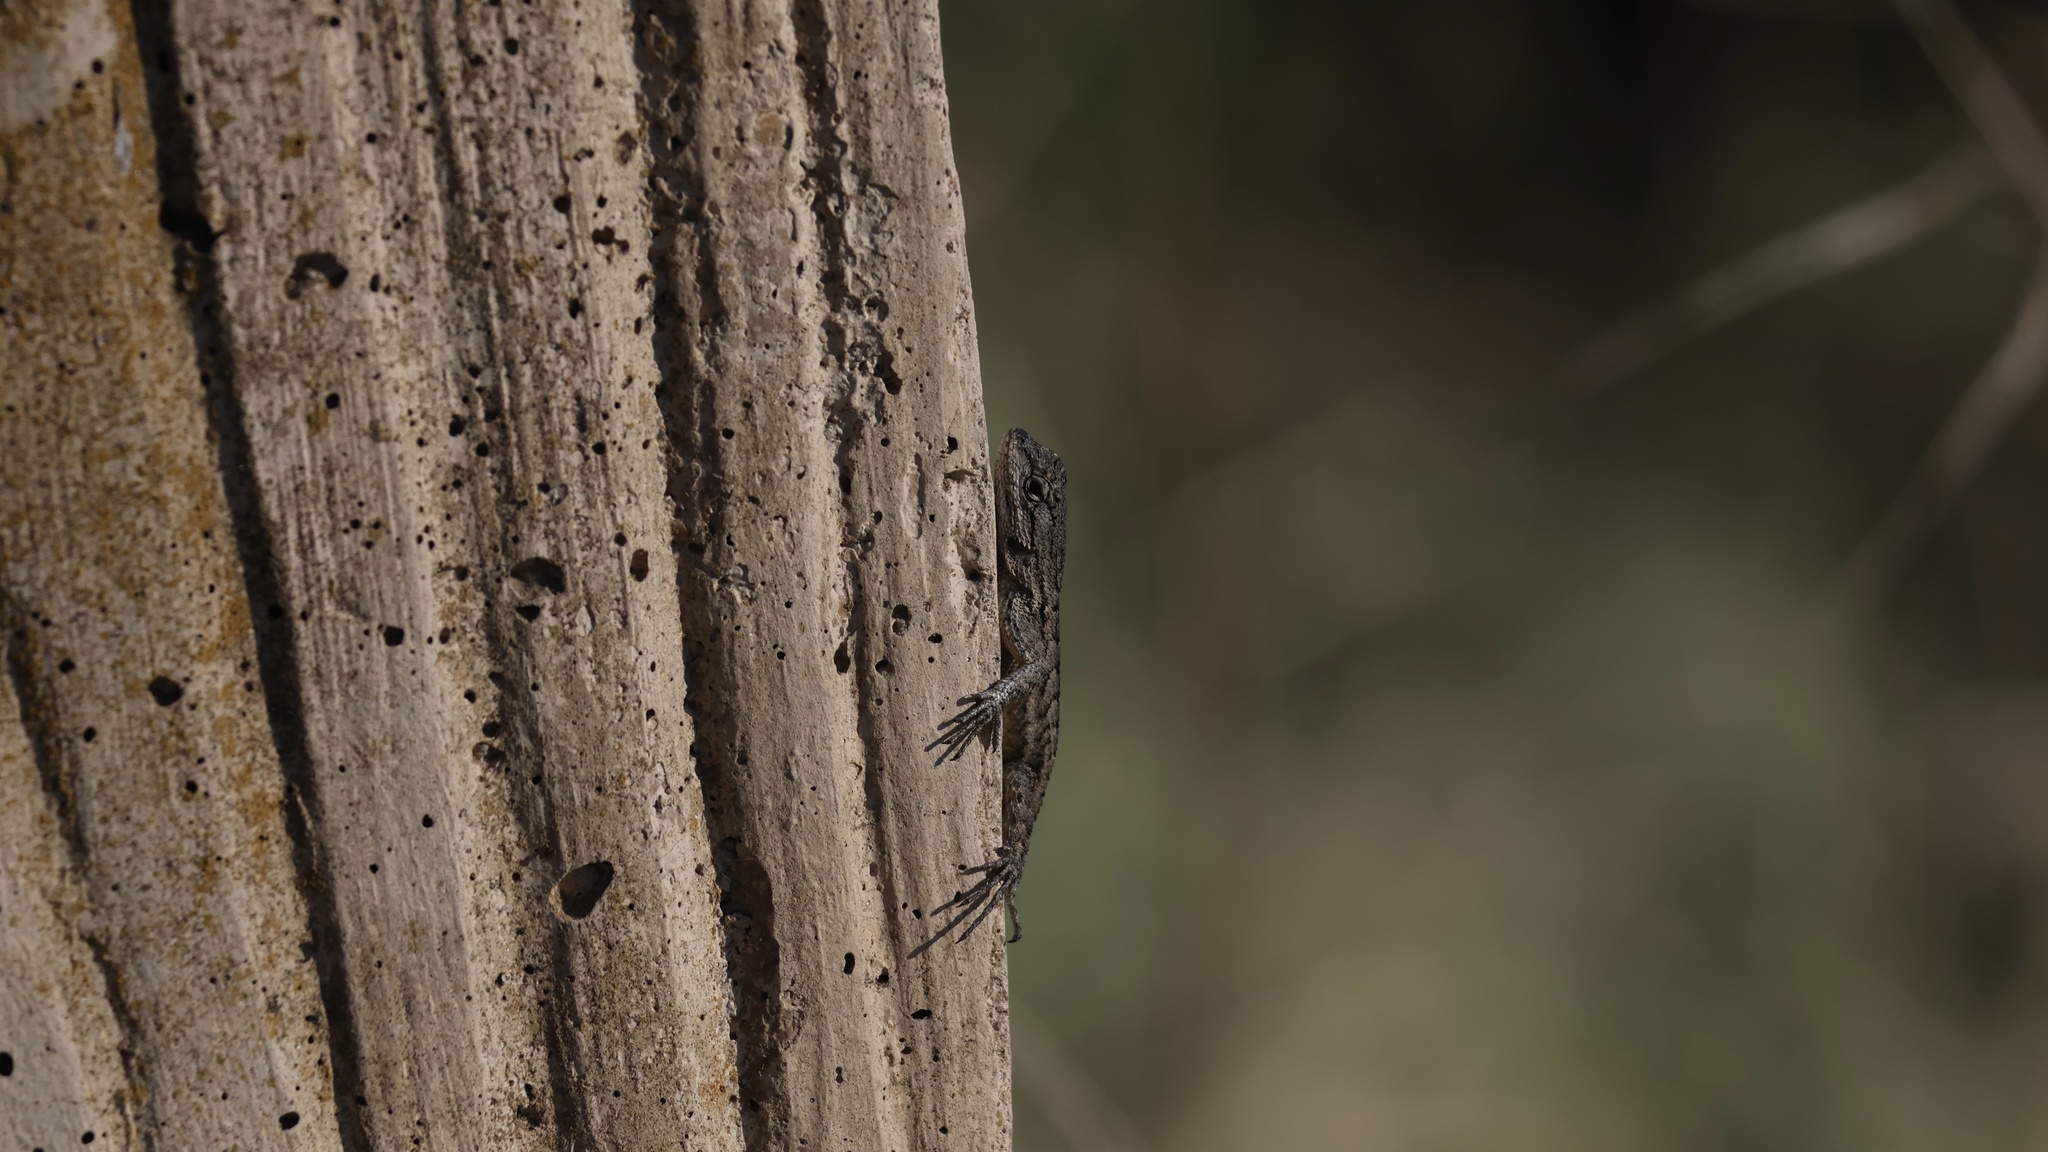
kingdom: Animalia
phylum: Chordata
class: Squamata
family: Phrynosomatidae
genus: Sceloporus
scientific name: Sceloporus occidentalis
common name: Western fence lizard
